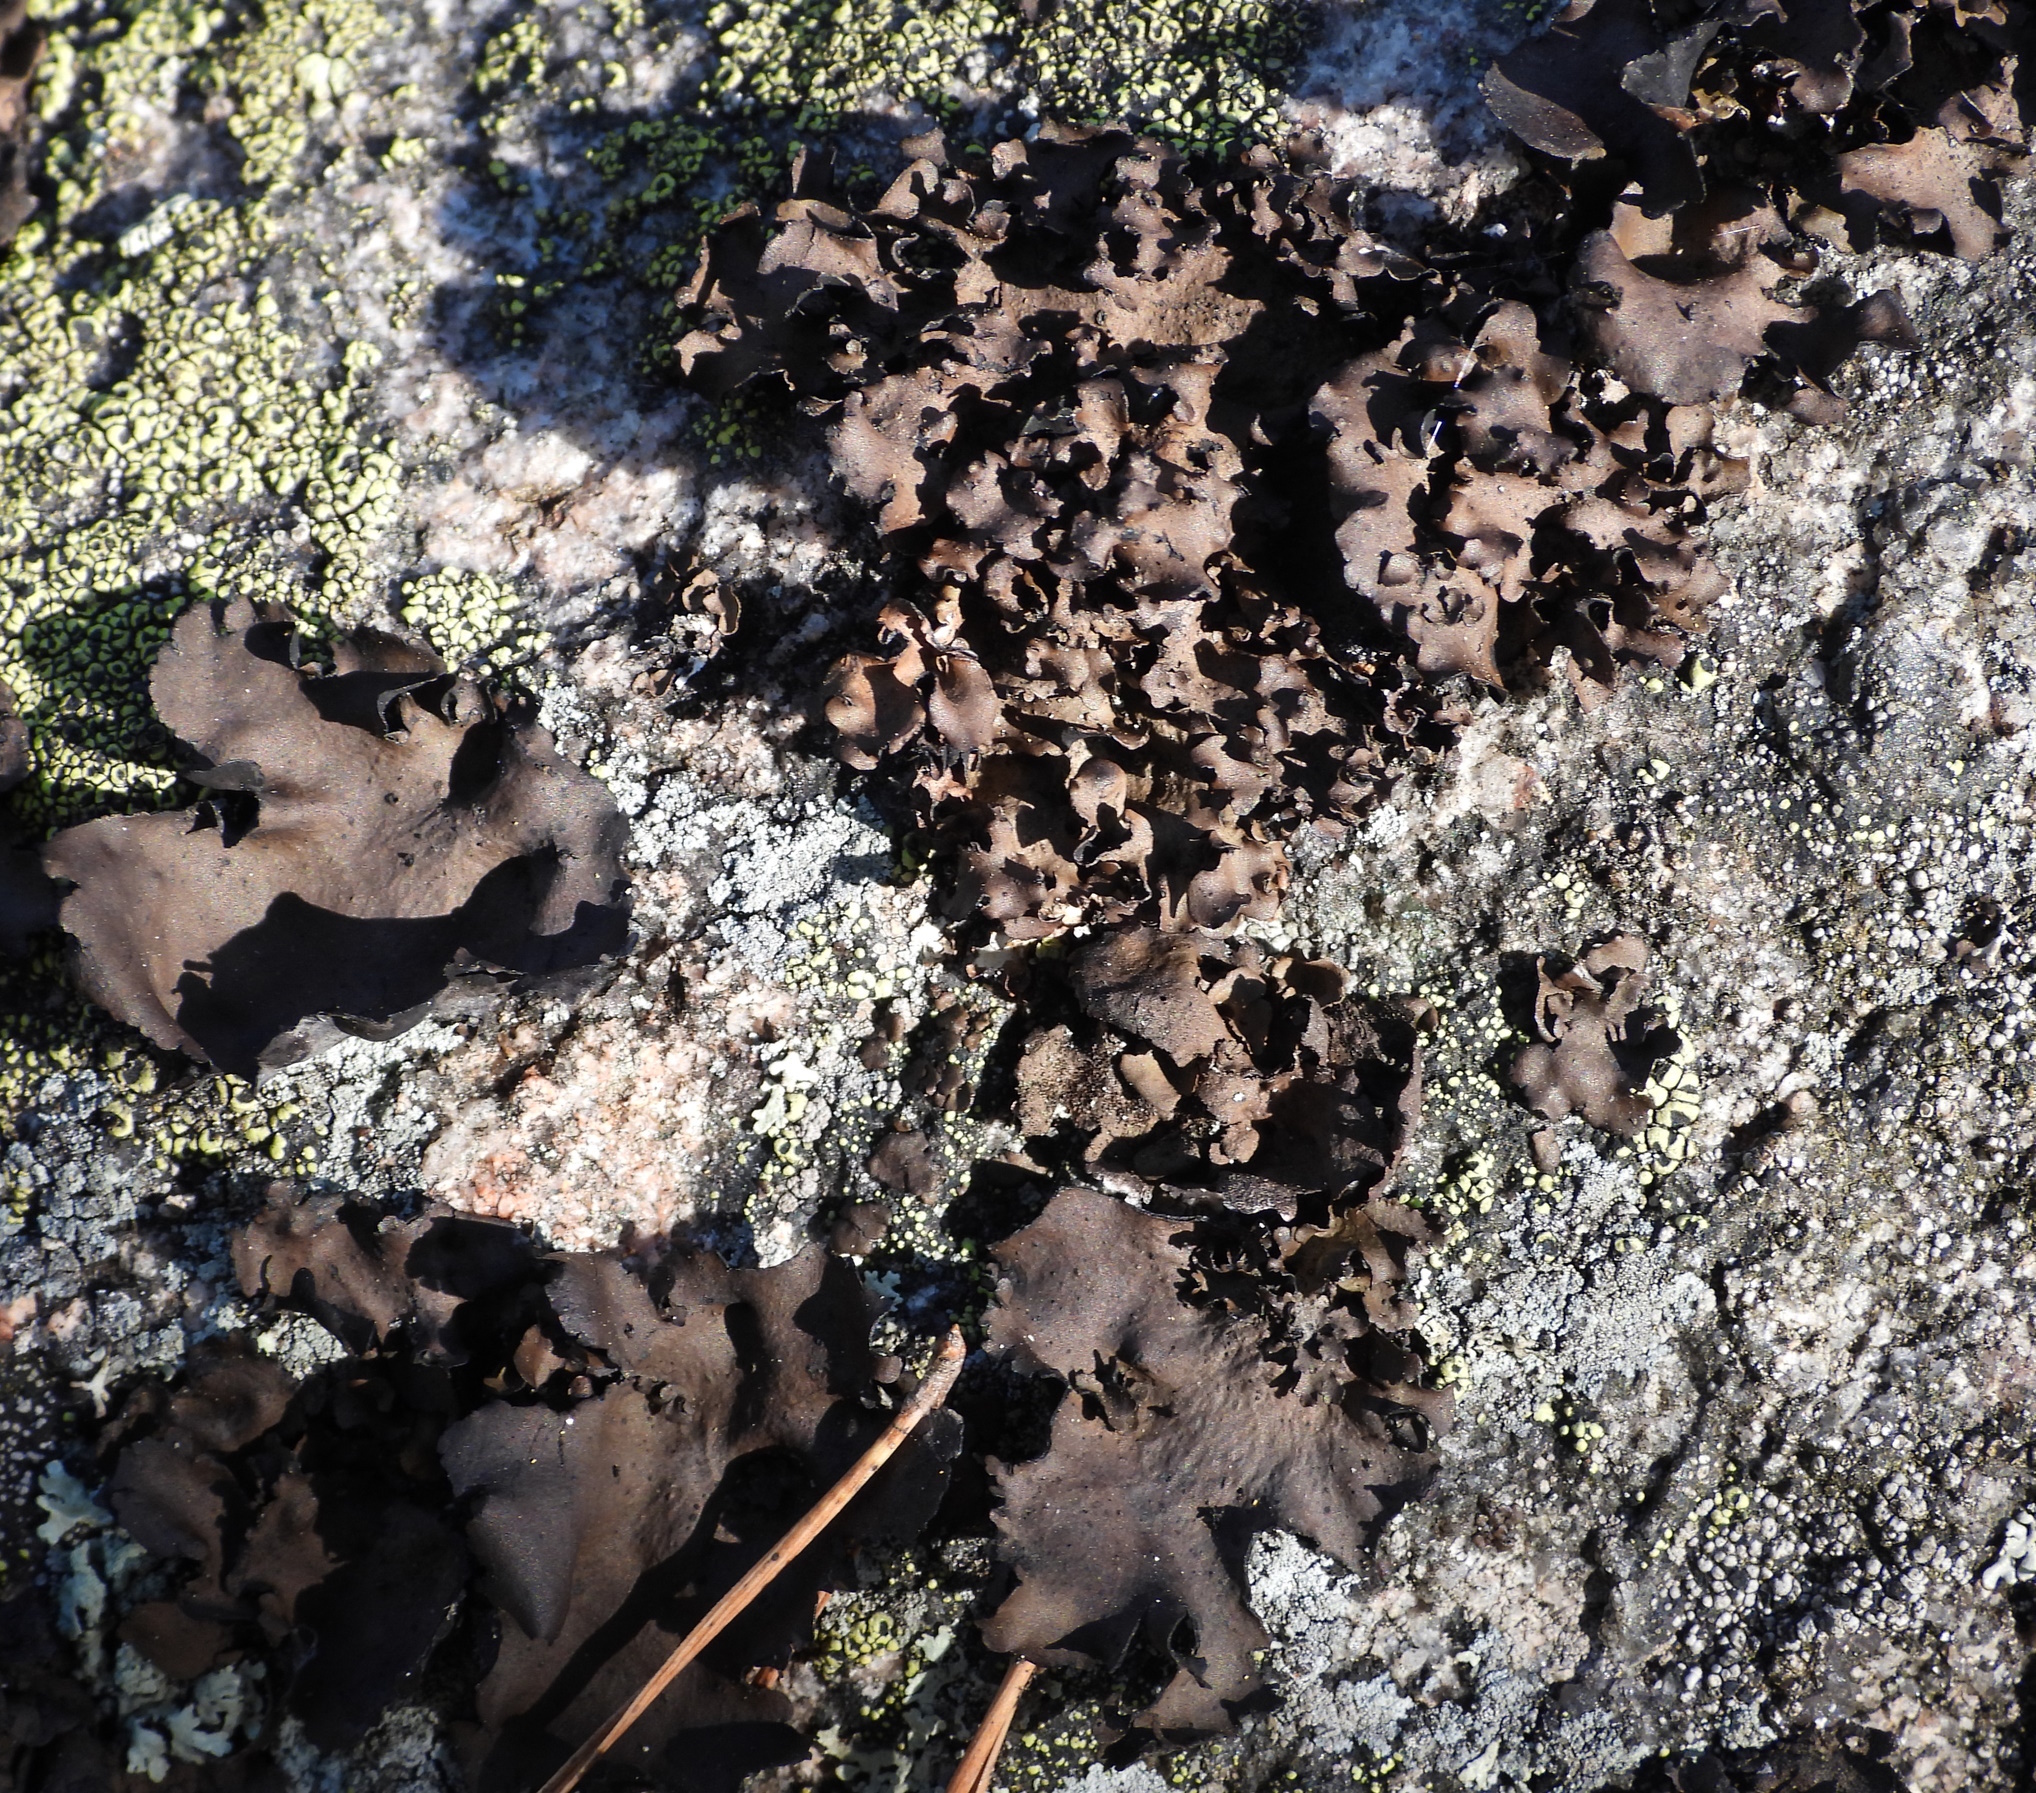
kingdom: Fungi
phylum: Ascomycota
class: Lecanoromycetes
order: Umbilicariales
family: Umbilicariaceae
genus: Umbilicaria
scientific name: Umbilicaria polyphylla
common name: Petalled rocktripe lichen
